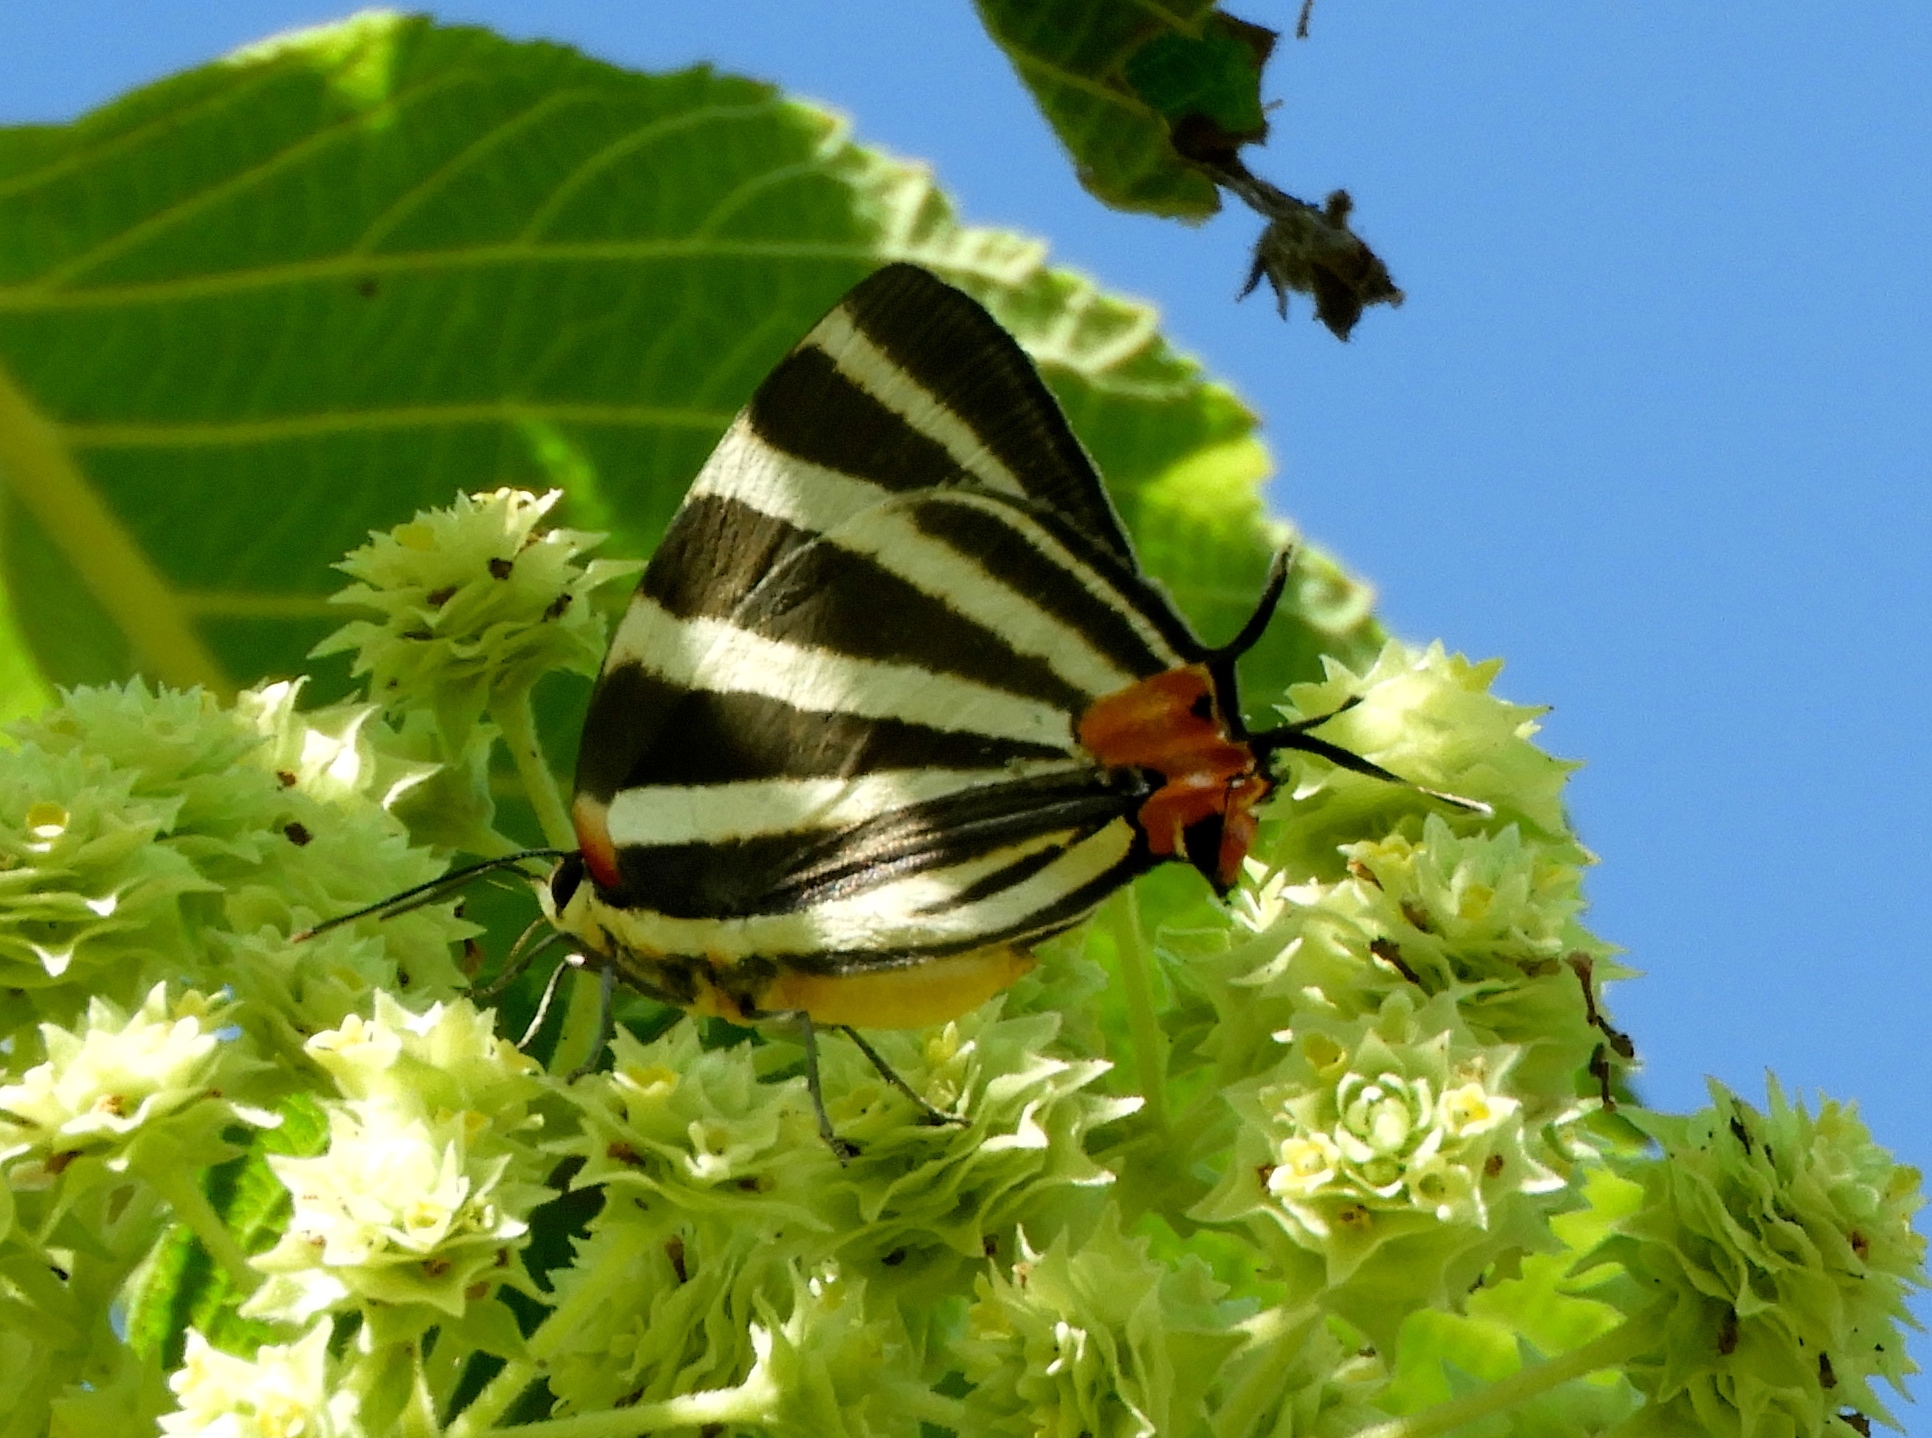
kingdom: Animalia
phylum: Arthropoda
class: Insecta
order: Lepidoptera
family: Lycaenidae
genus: Thecla
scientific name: Thecla bathildis
